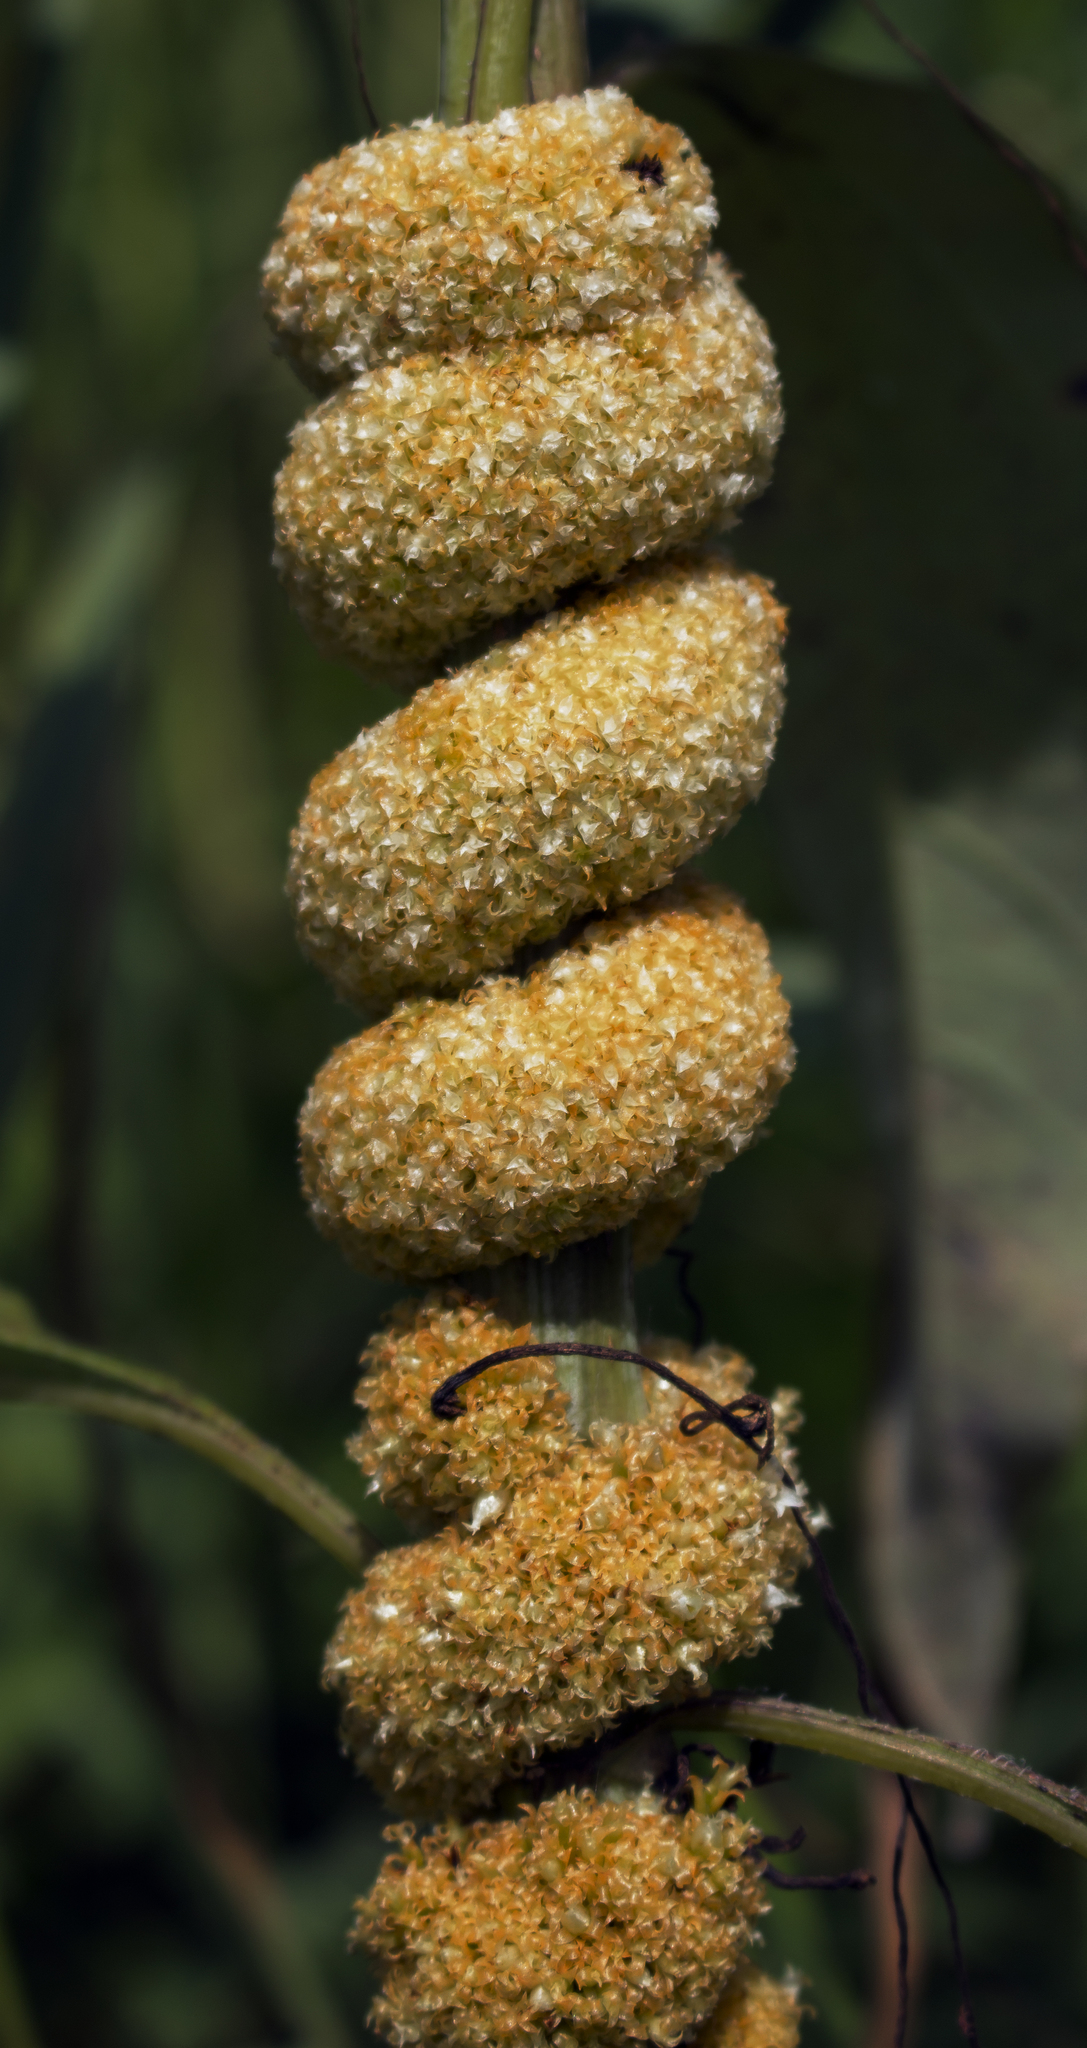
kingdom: Plantae
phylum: Tracheophyta
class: Magnoliopsida
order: Solanales
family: Convolvulaceae
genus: Cuscuta
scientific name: Cuscuta glomerata
